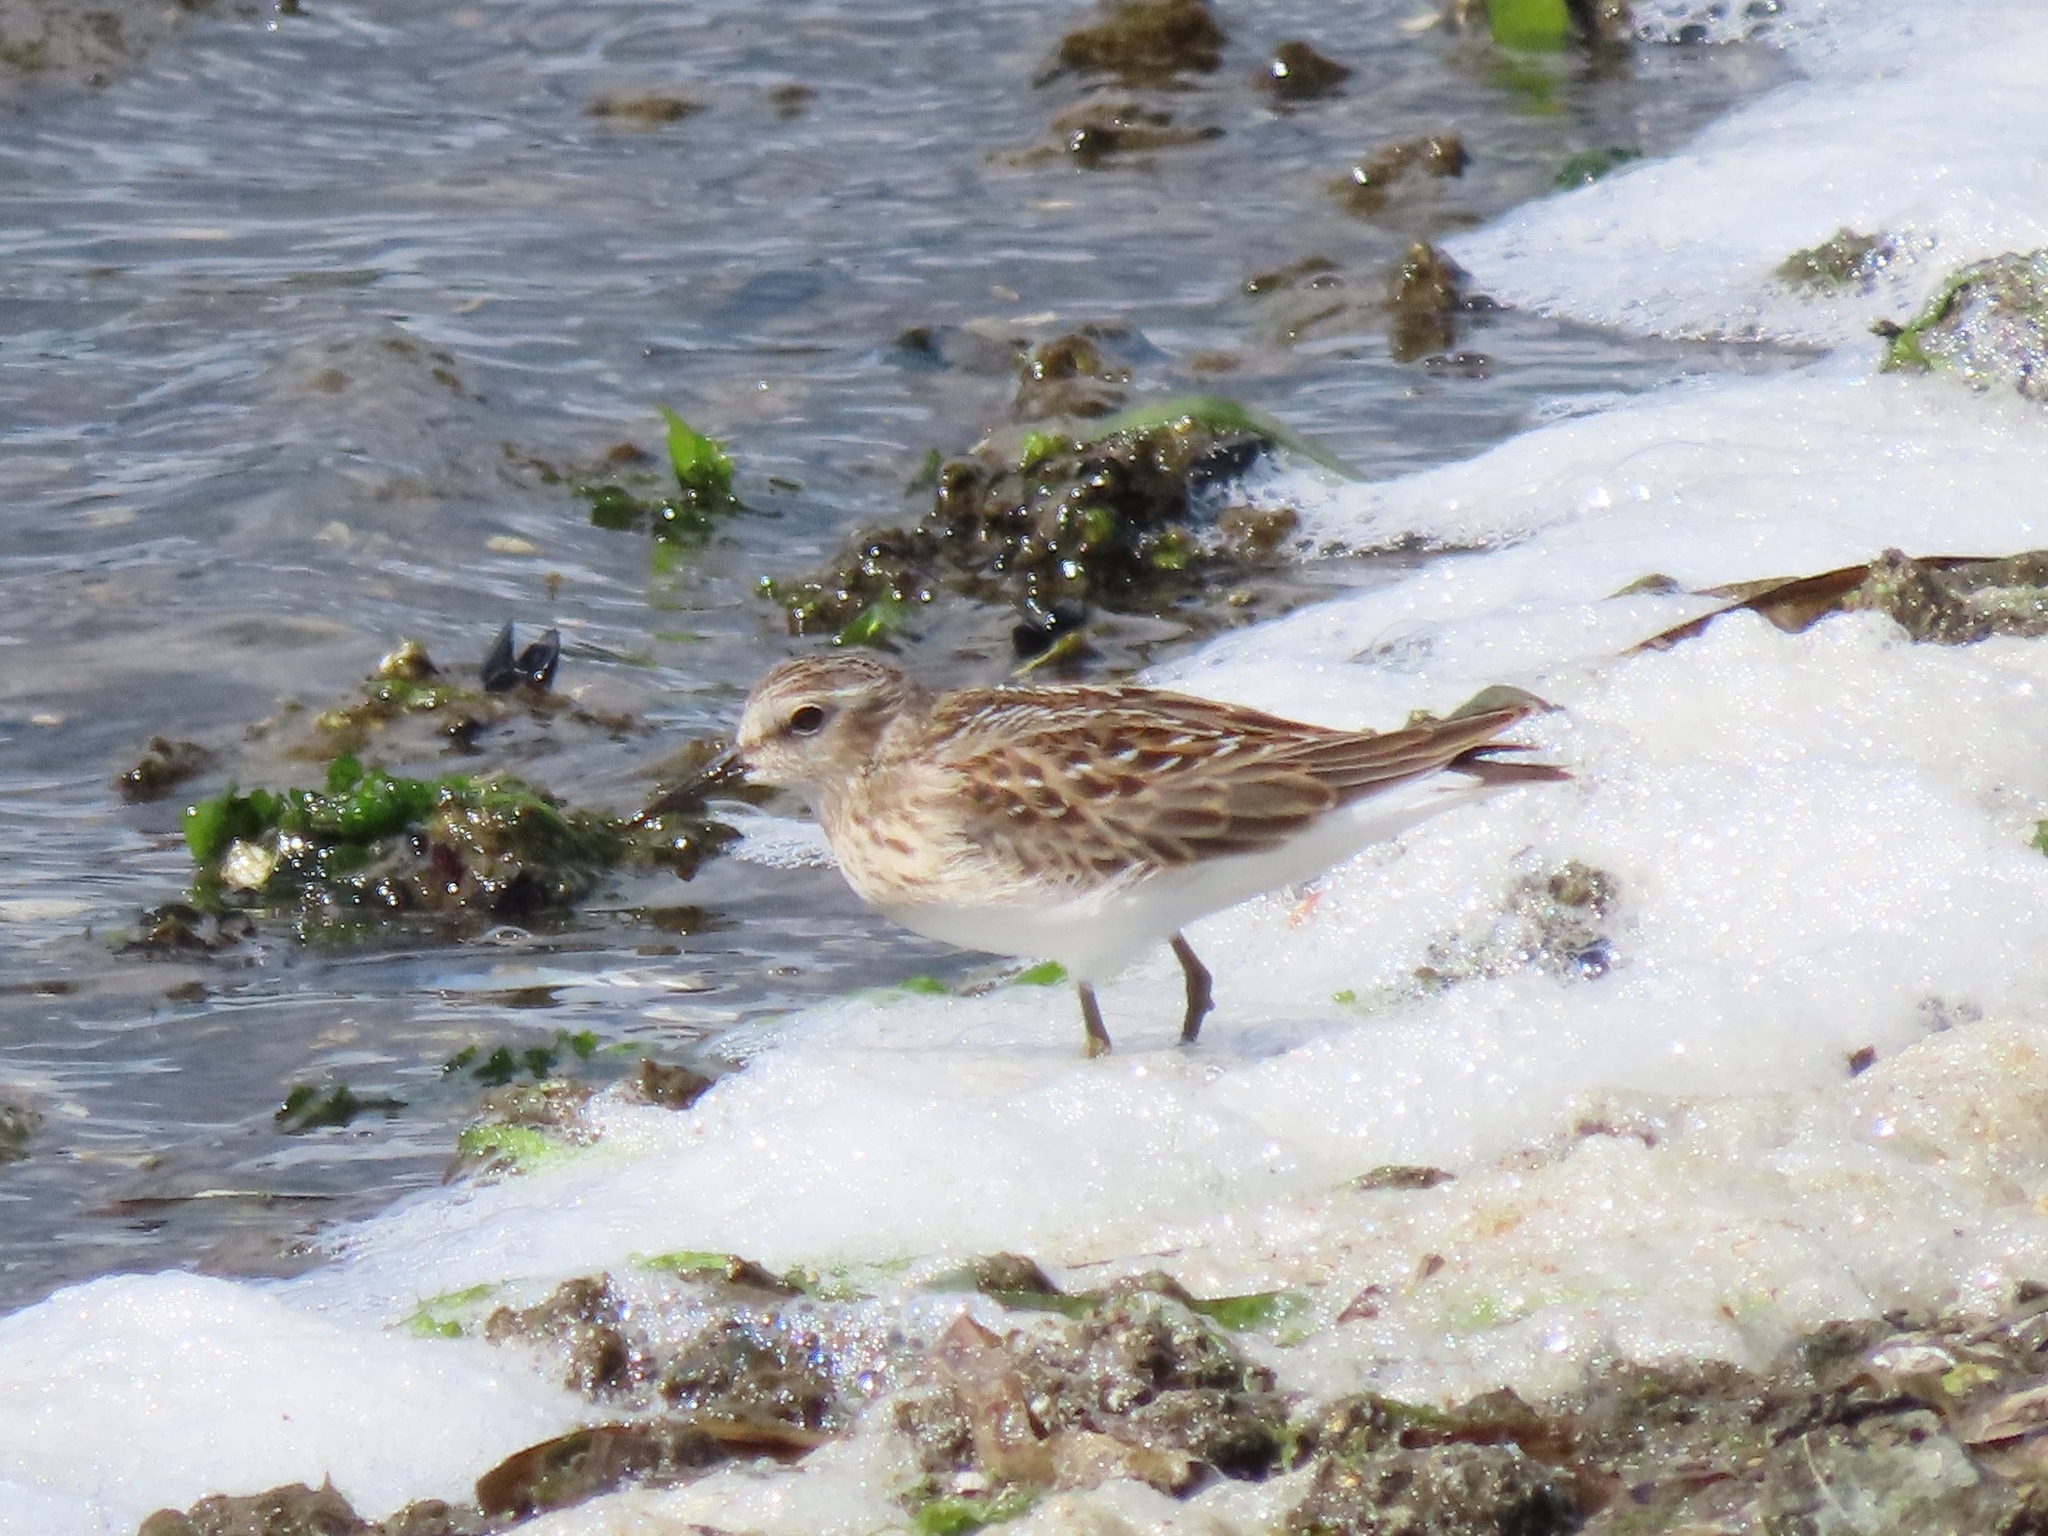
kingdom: Animalia
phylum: Chordata
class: Aves
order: Charadriiformes
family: Scolopacidae
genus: Calidris
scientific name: Calidris minutilla
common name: Least sandpiper
